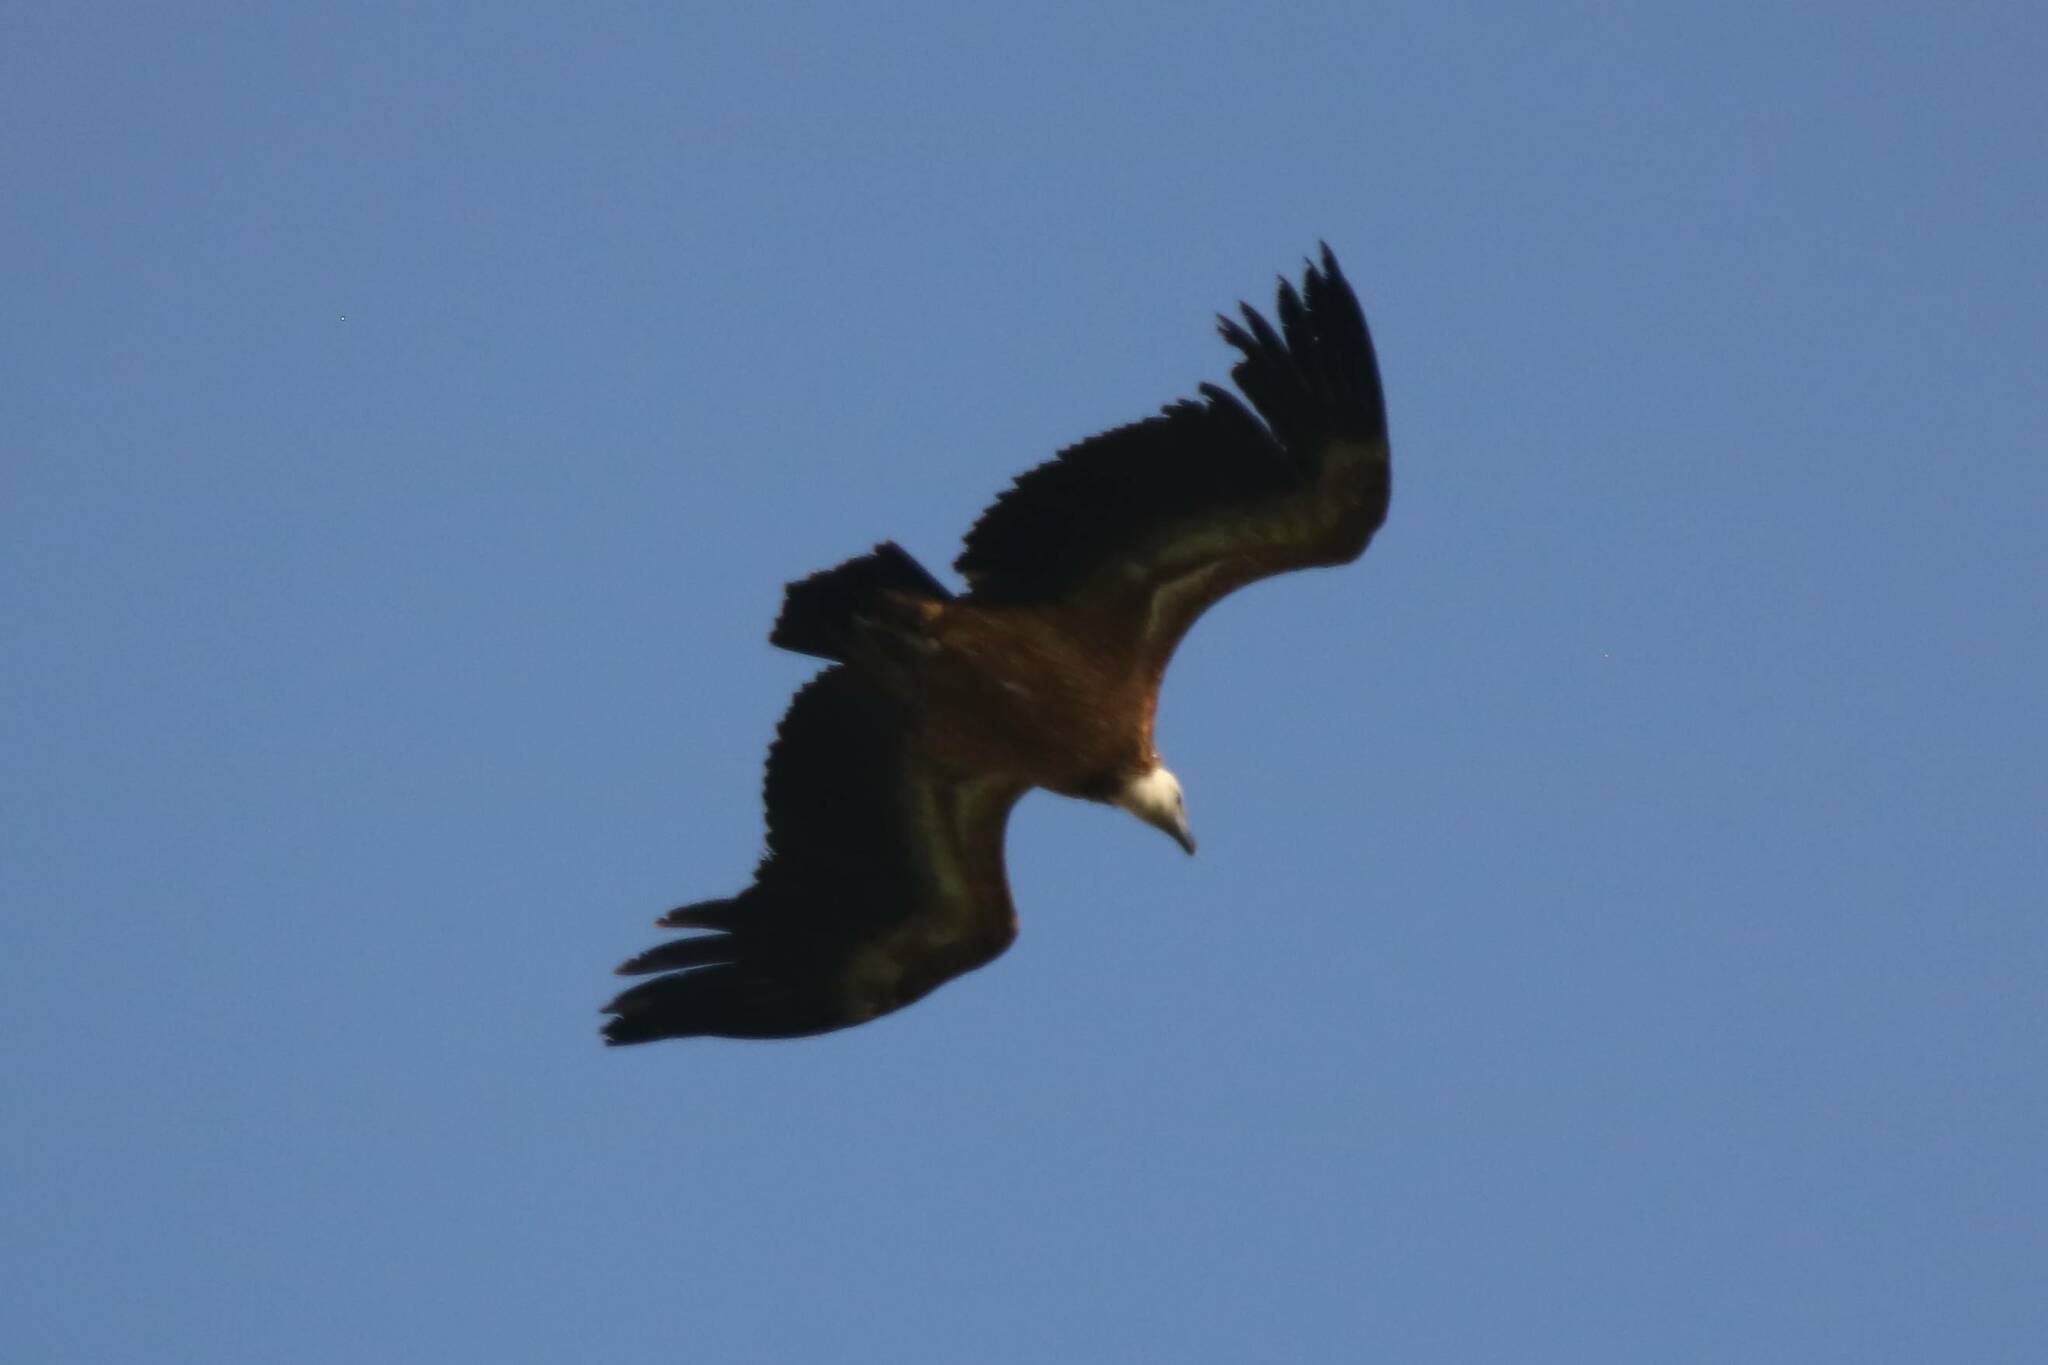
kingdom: Animalia
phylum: Chordata
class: Aves
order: Accipitriformes
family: Accipitridae
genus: Gyps
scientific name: Gyps fulvus
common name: Griffon vulture
